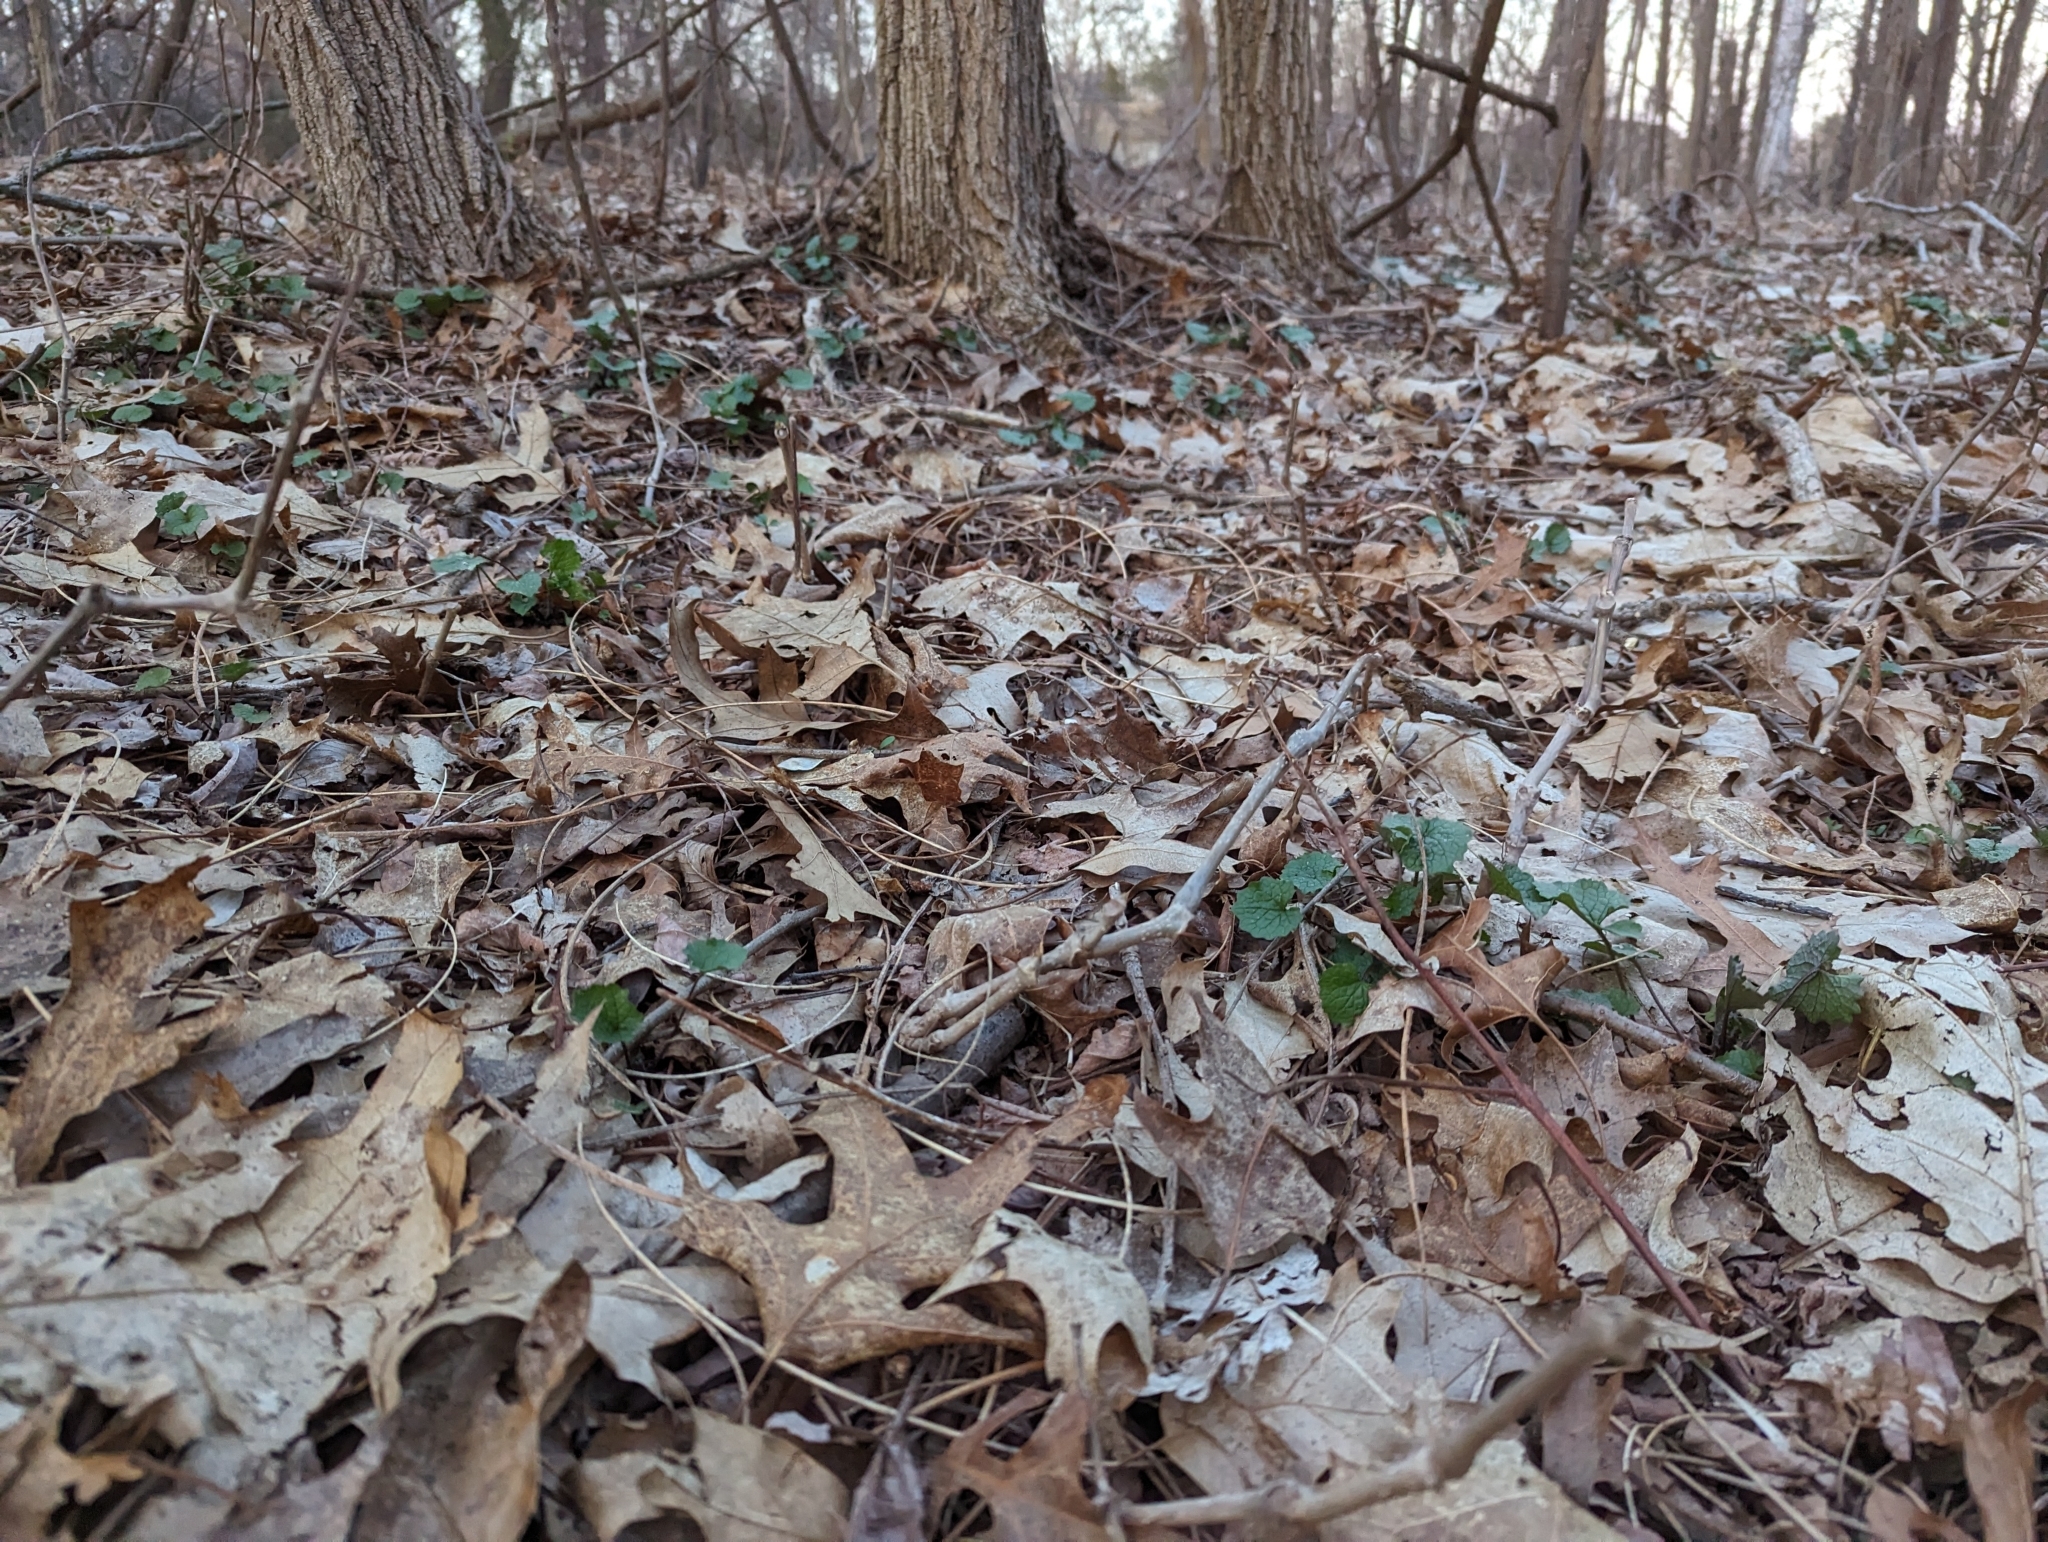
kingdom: Plantae
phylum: Tracheophyta
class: Magnoliopsida
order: Brassicales
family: Brassicaceae
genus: Alliaria
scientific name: Alliaria petiolata
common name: Garlic mustard
